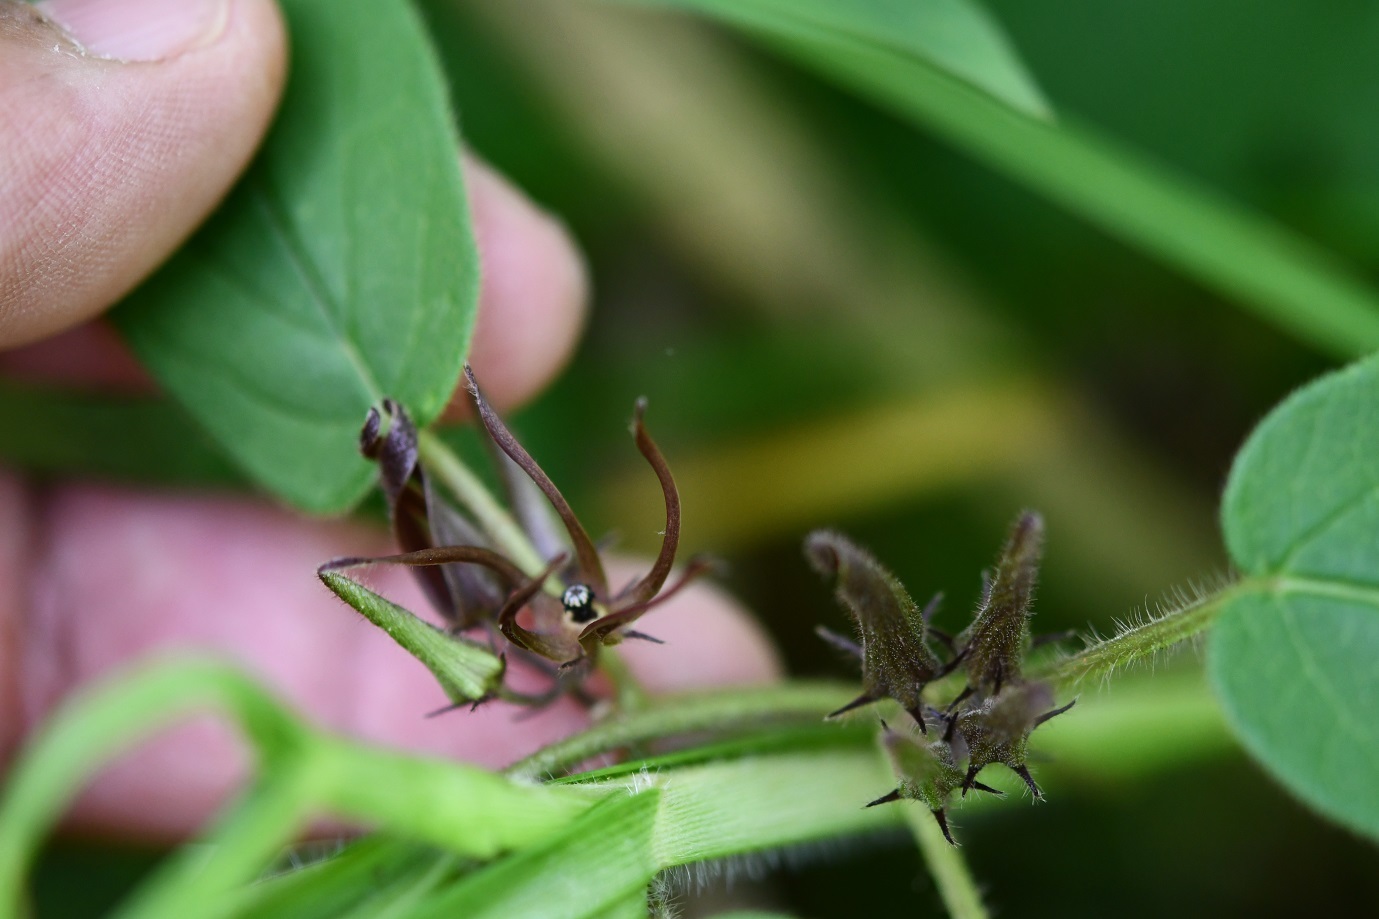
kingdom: Plantae
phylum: Tracheophyta
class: Magnoliopsida
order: Gentianales
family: Apocynaceae
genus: Matelea
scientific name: Matelea medusae
